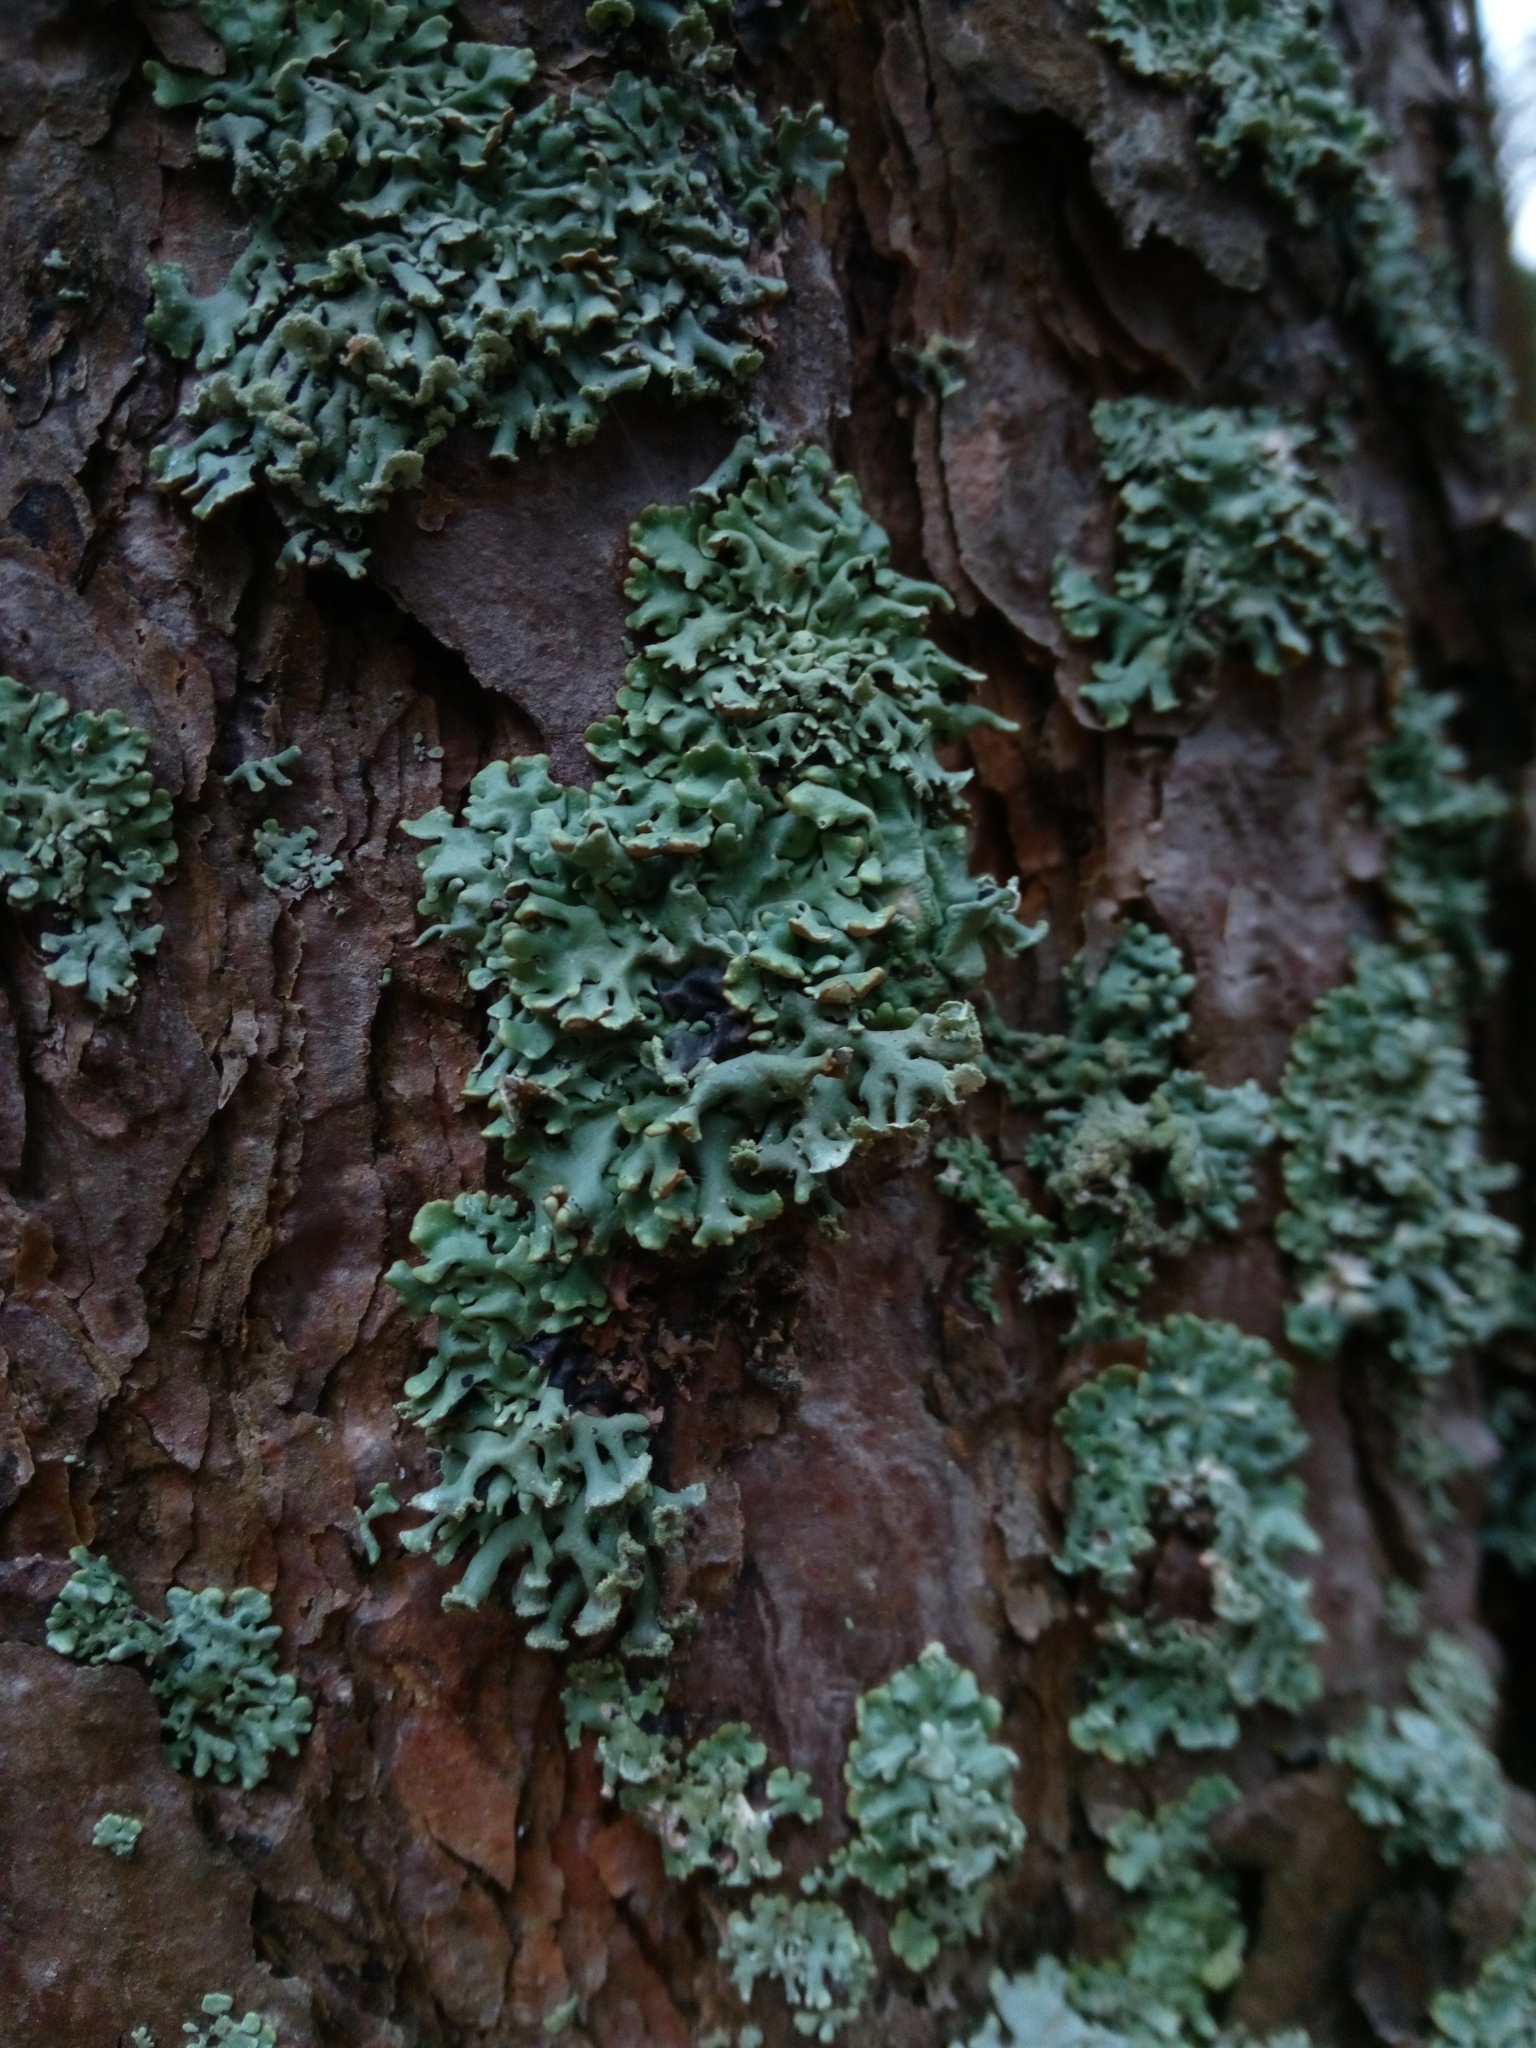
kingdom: Fungi
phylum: Ascomycota
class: Lecanoromycetes
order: Lecanorales
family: Parmeliaceae
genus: Hypogymnia
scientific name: Hypogymnia physodes
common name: Dark crottle
